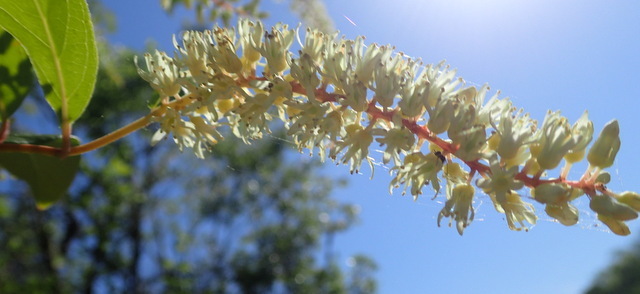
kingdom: Plantae
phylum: Tracheophyta
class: Magnoliopsida
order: Saxifragales
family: Iteaceae
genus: Itea
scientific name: Itea virginica
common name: Sweetspire
